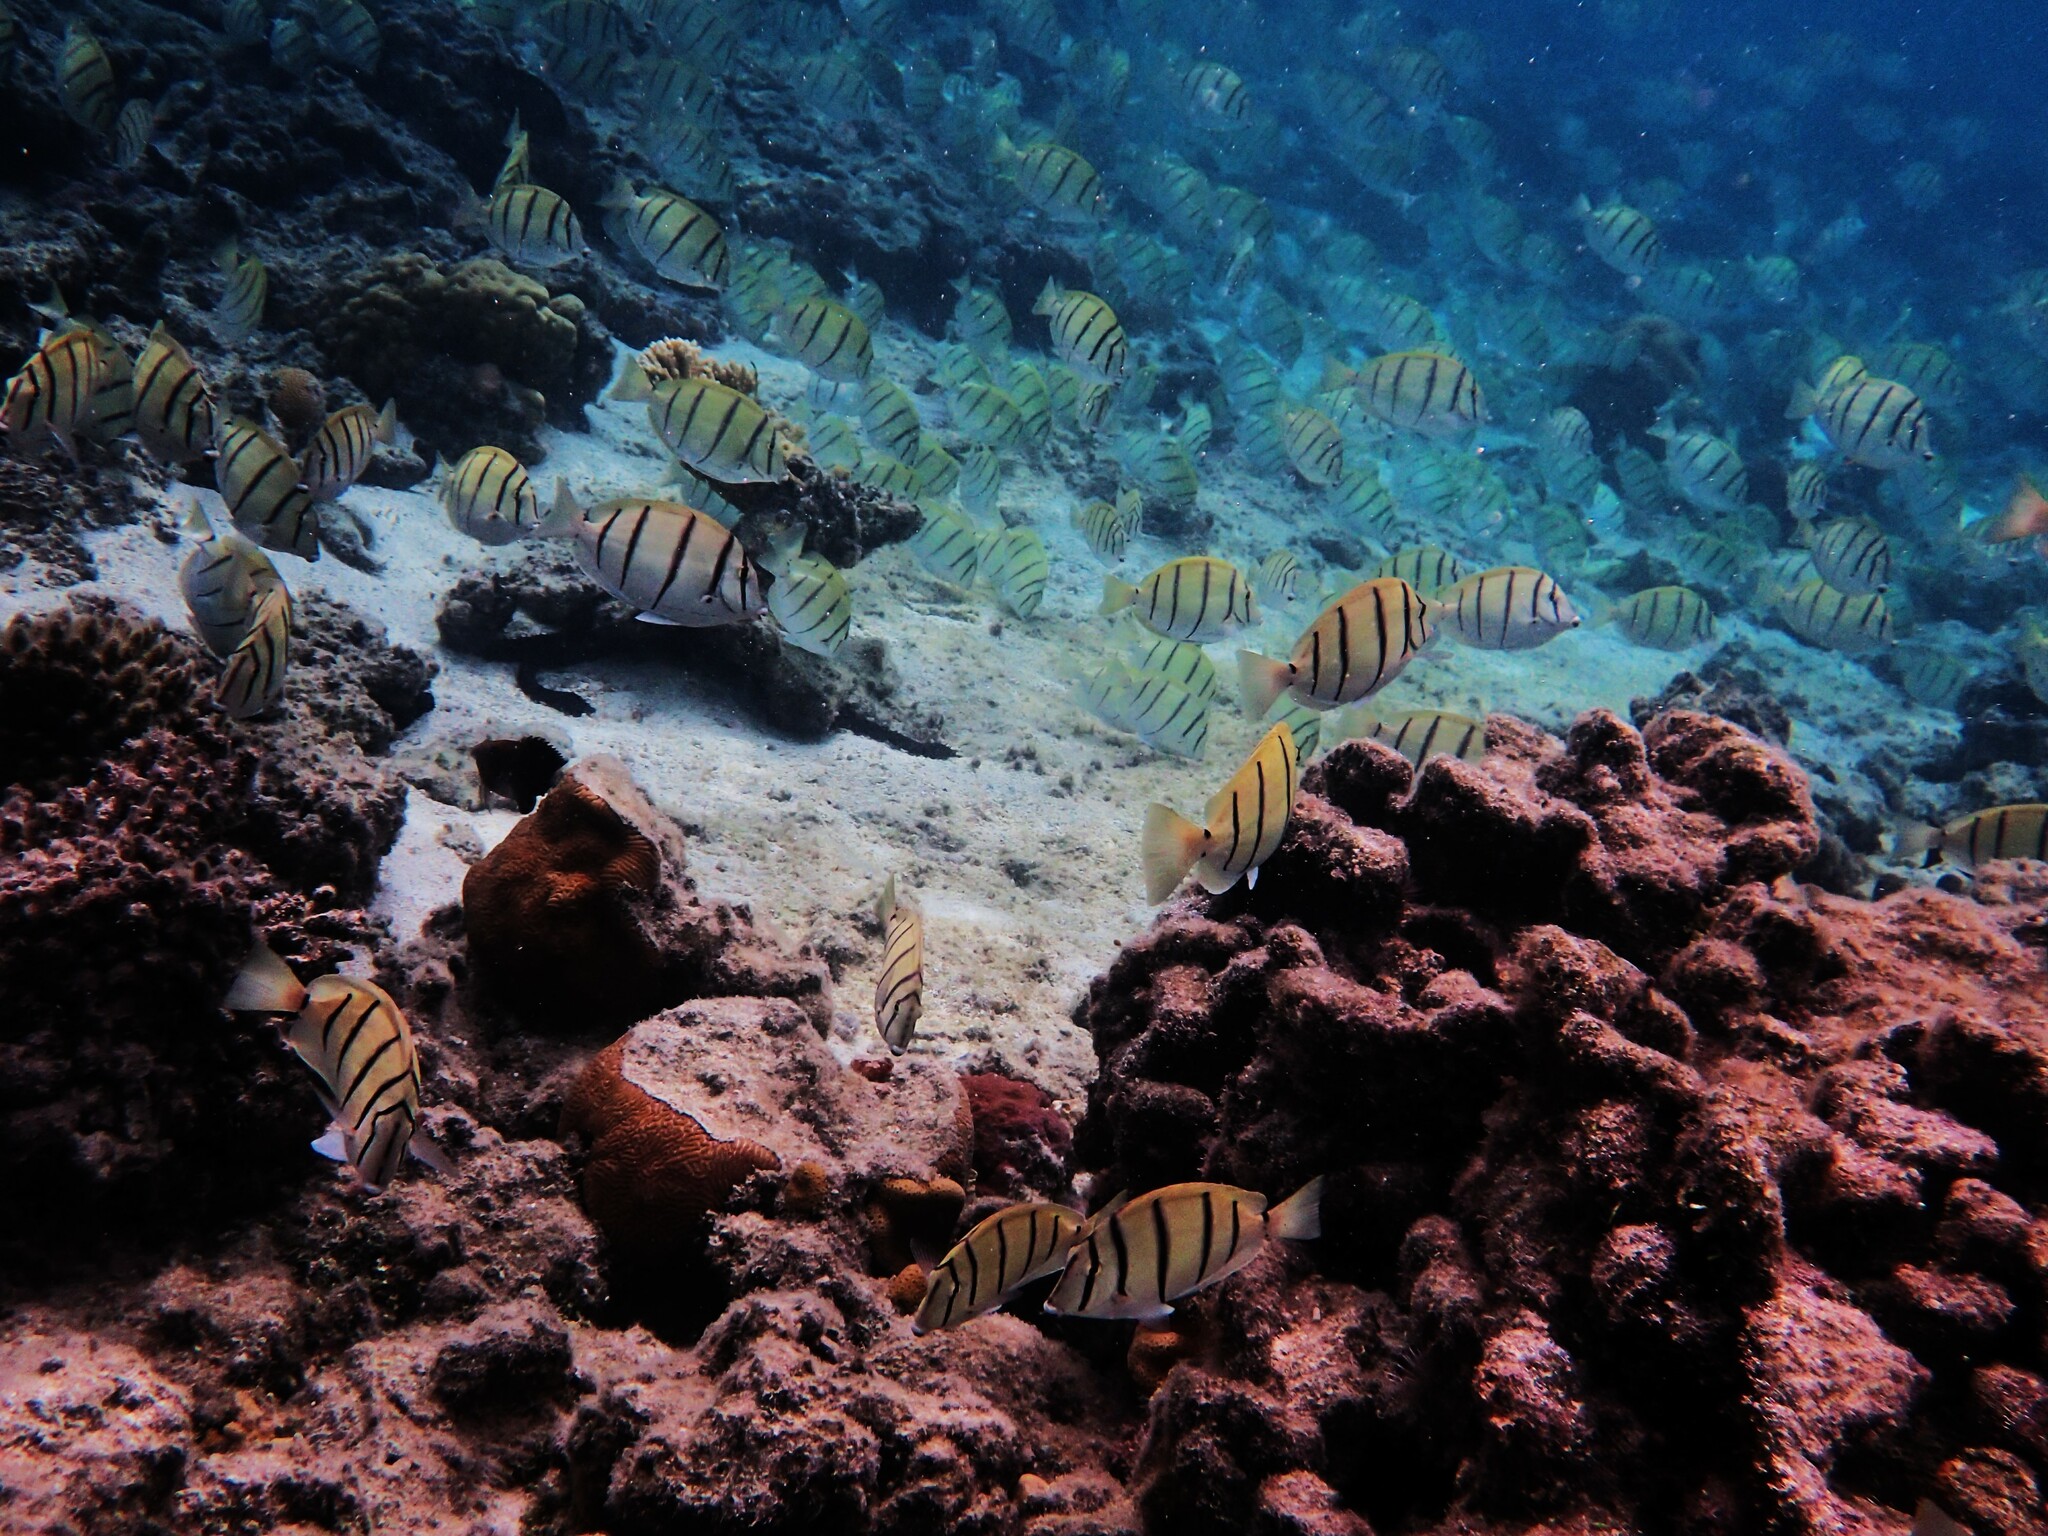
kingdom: Animalia
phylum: Chordata
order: Perciformes
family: Acanthuridae
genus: Acanthurus
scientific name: Acanthurus triostegus
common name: Convict surgeonfish
